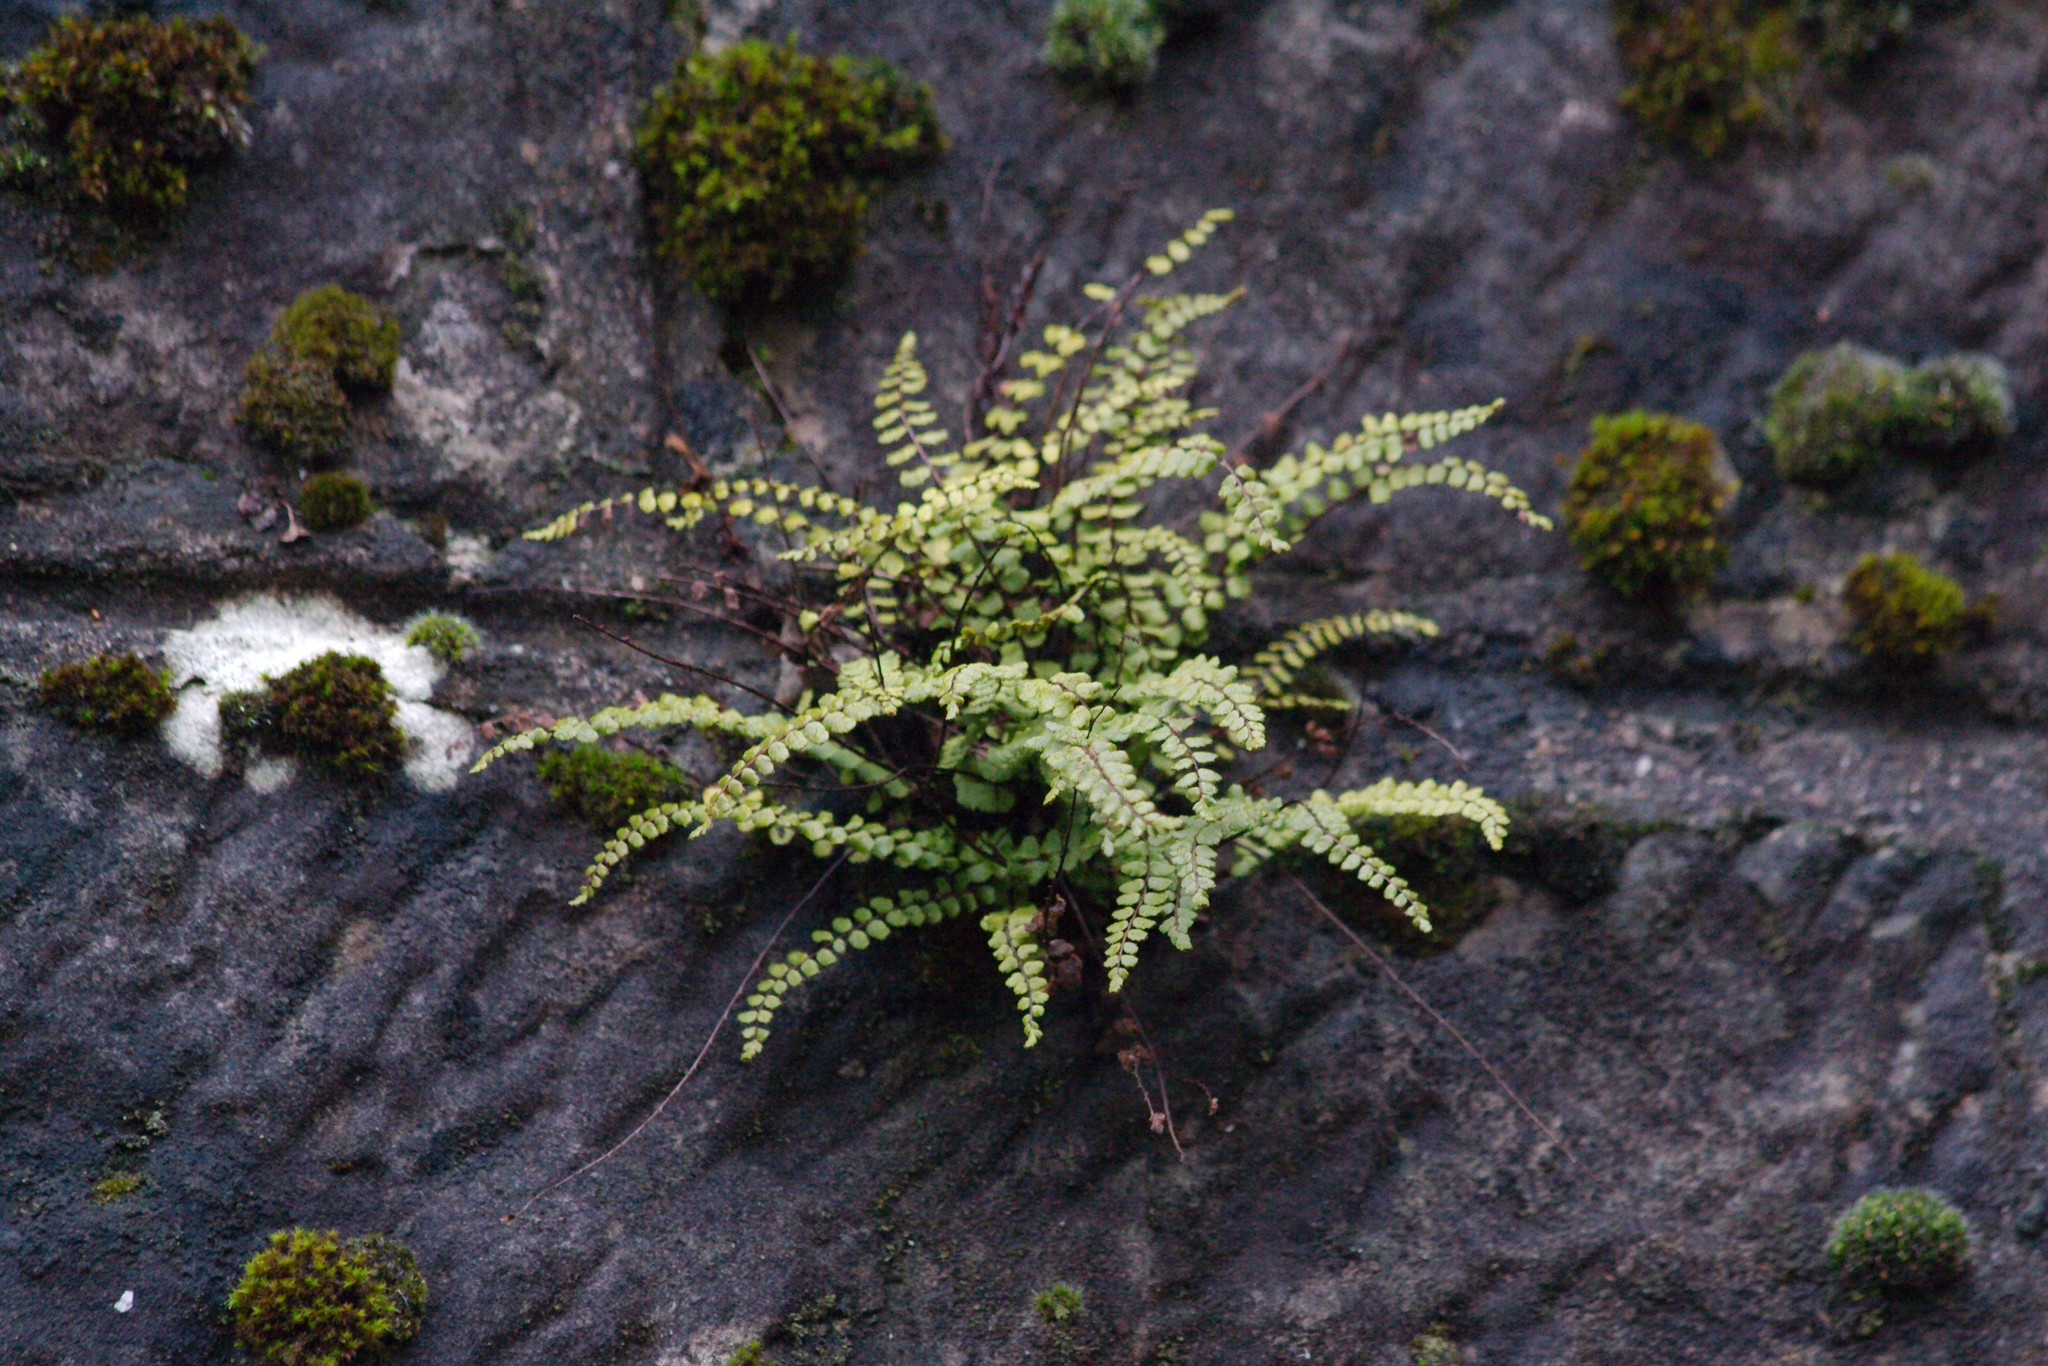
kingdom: Plantae
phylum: Tracheophyta
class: Polypodiopsida
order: Polypodiales
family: Aspleniaceae
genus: Asplenium
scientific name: Asplenium trichomanes
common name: Maidenhair spleenwort
